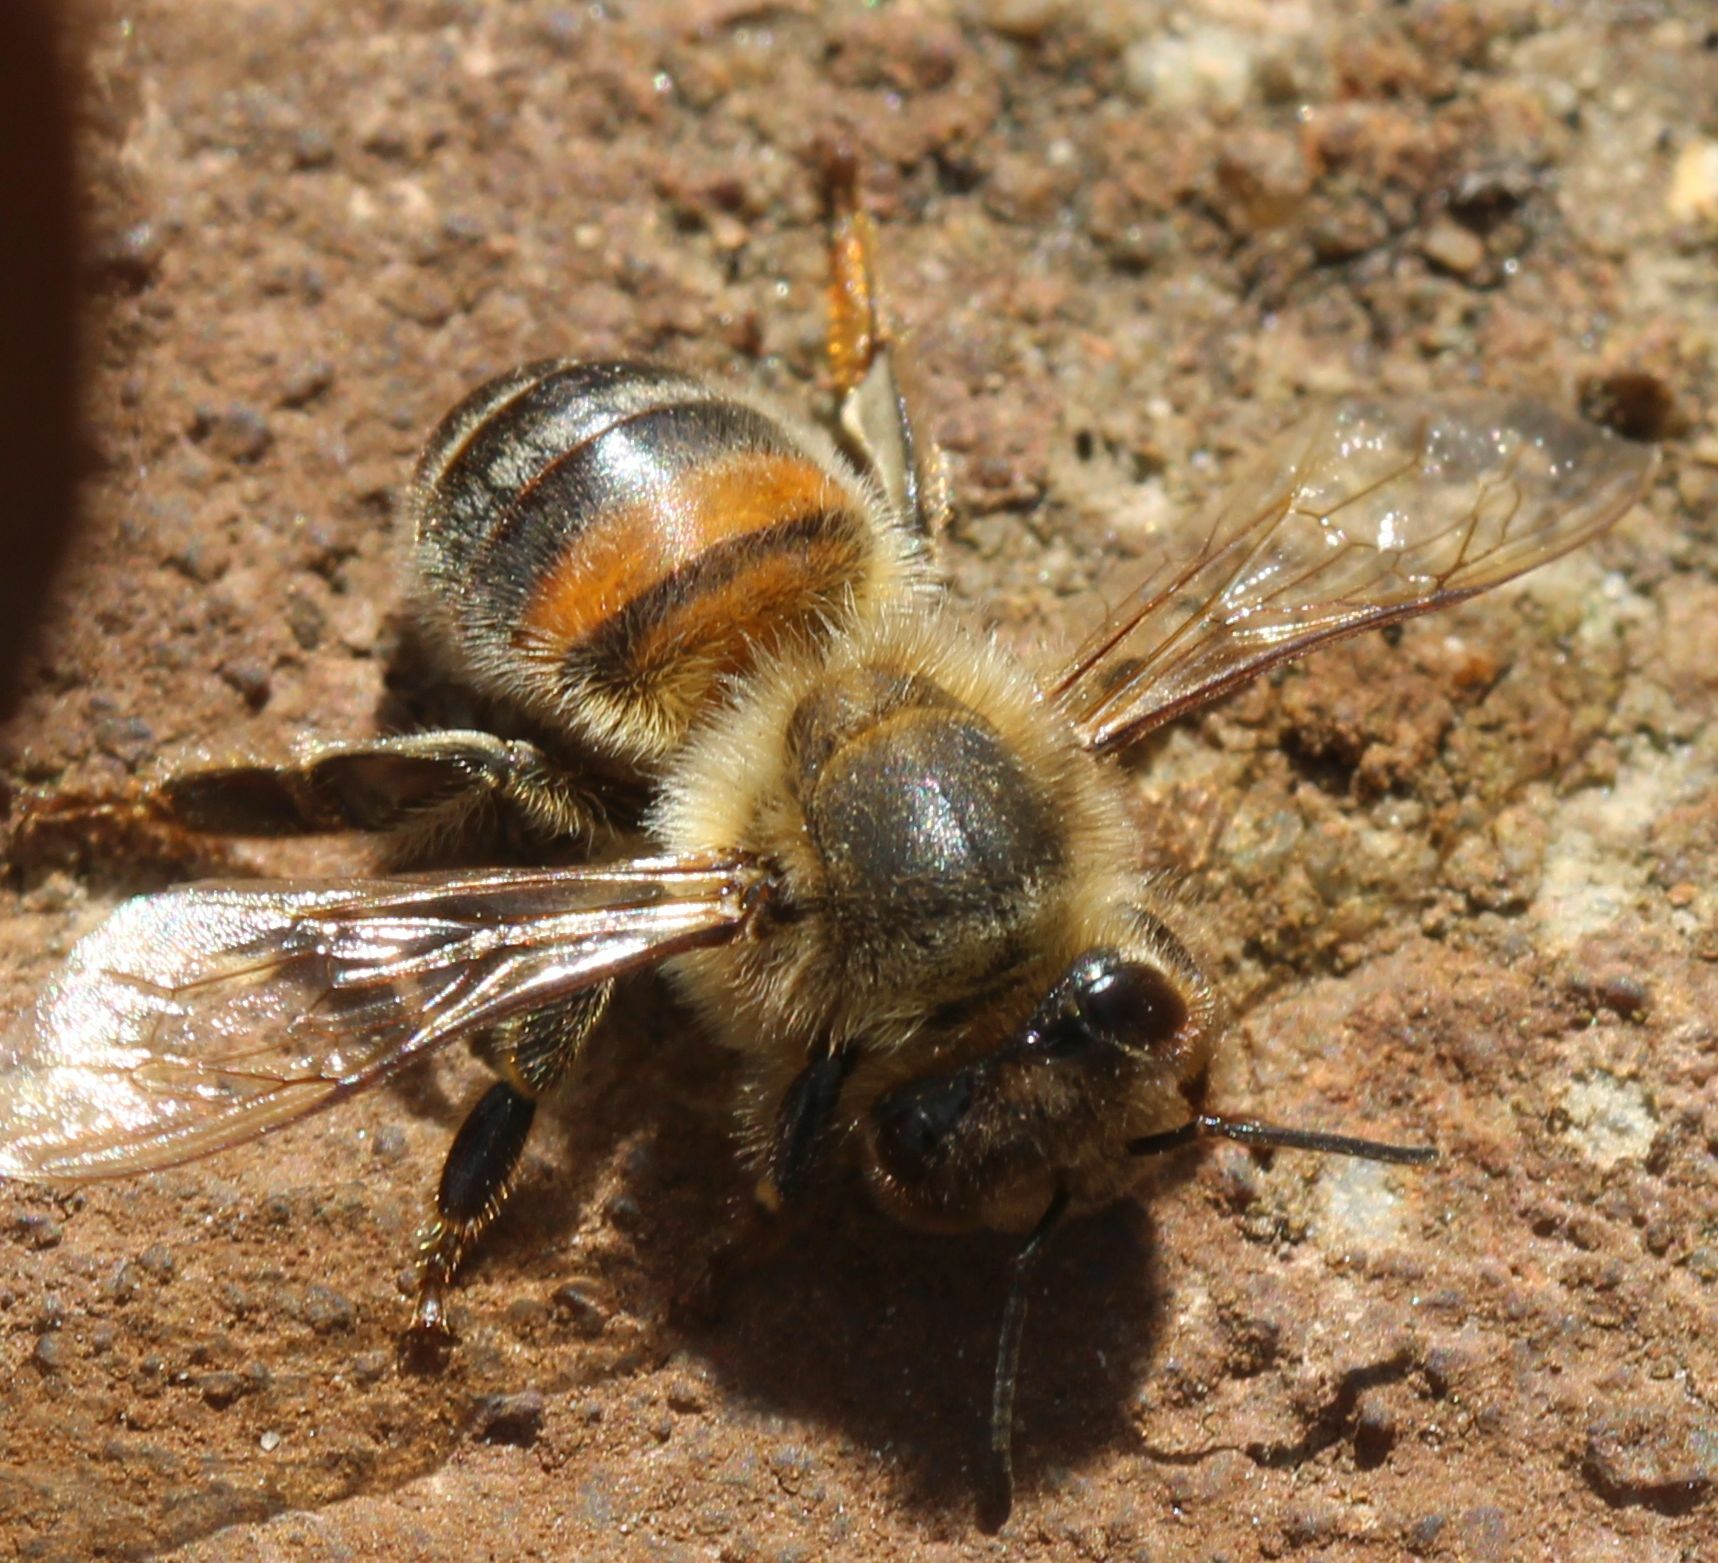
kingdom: Animalia
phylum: Arthropoda
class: Insecta
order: Hymenoptera
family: Apidae
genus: Apis
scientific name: Apis mellifera
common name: Honey bee
